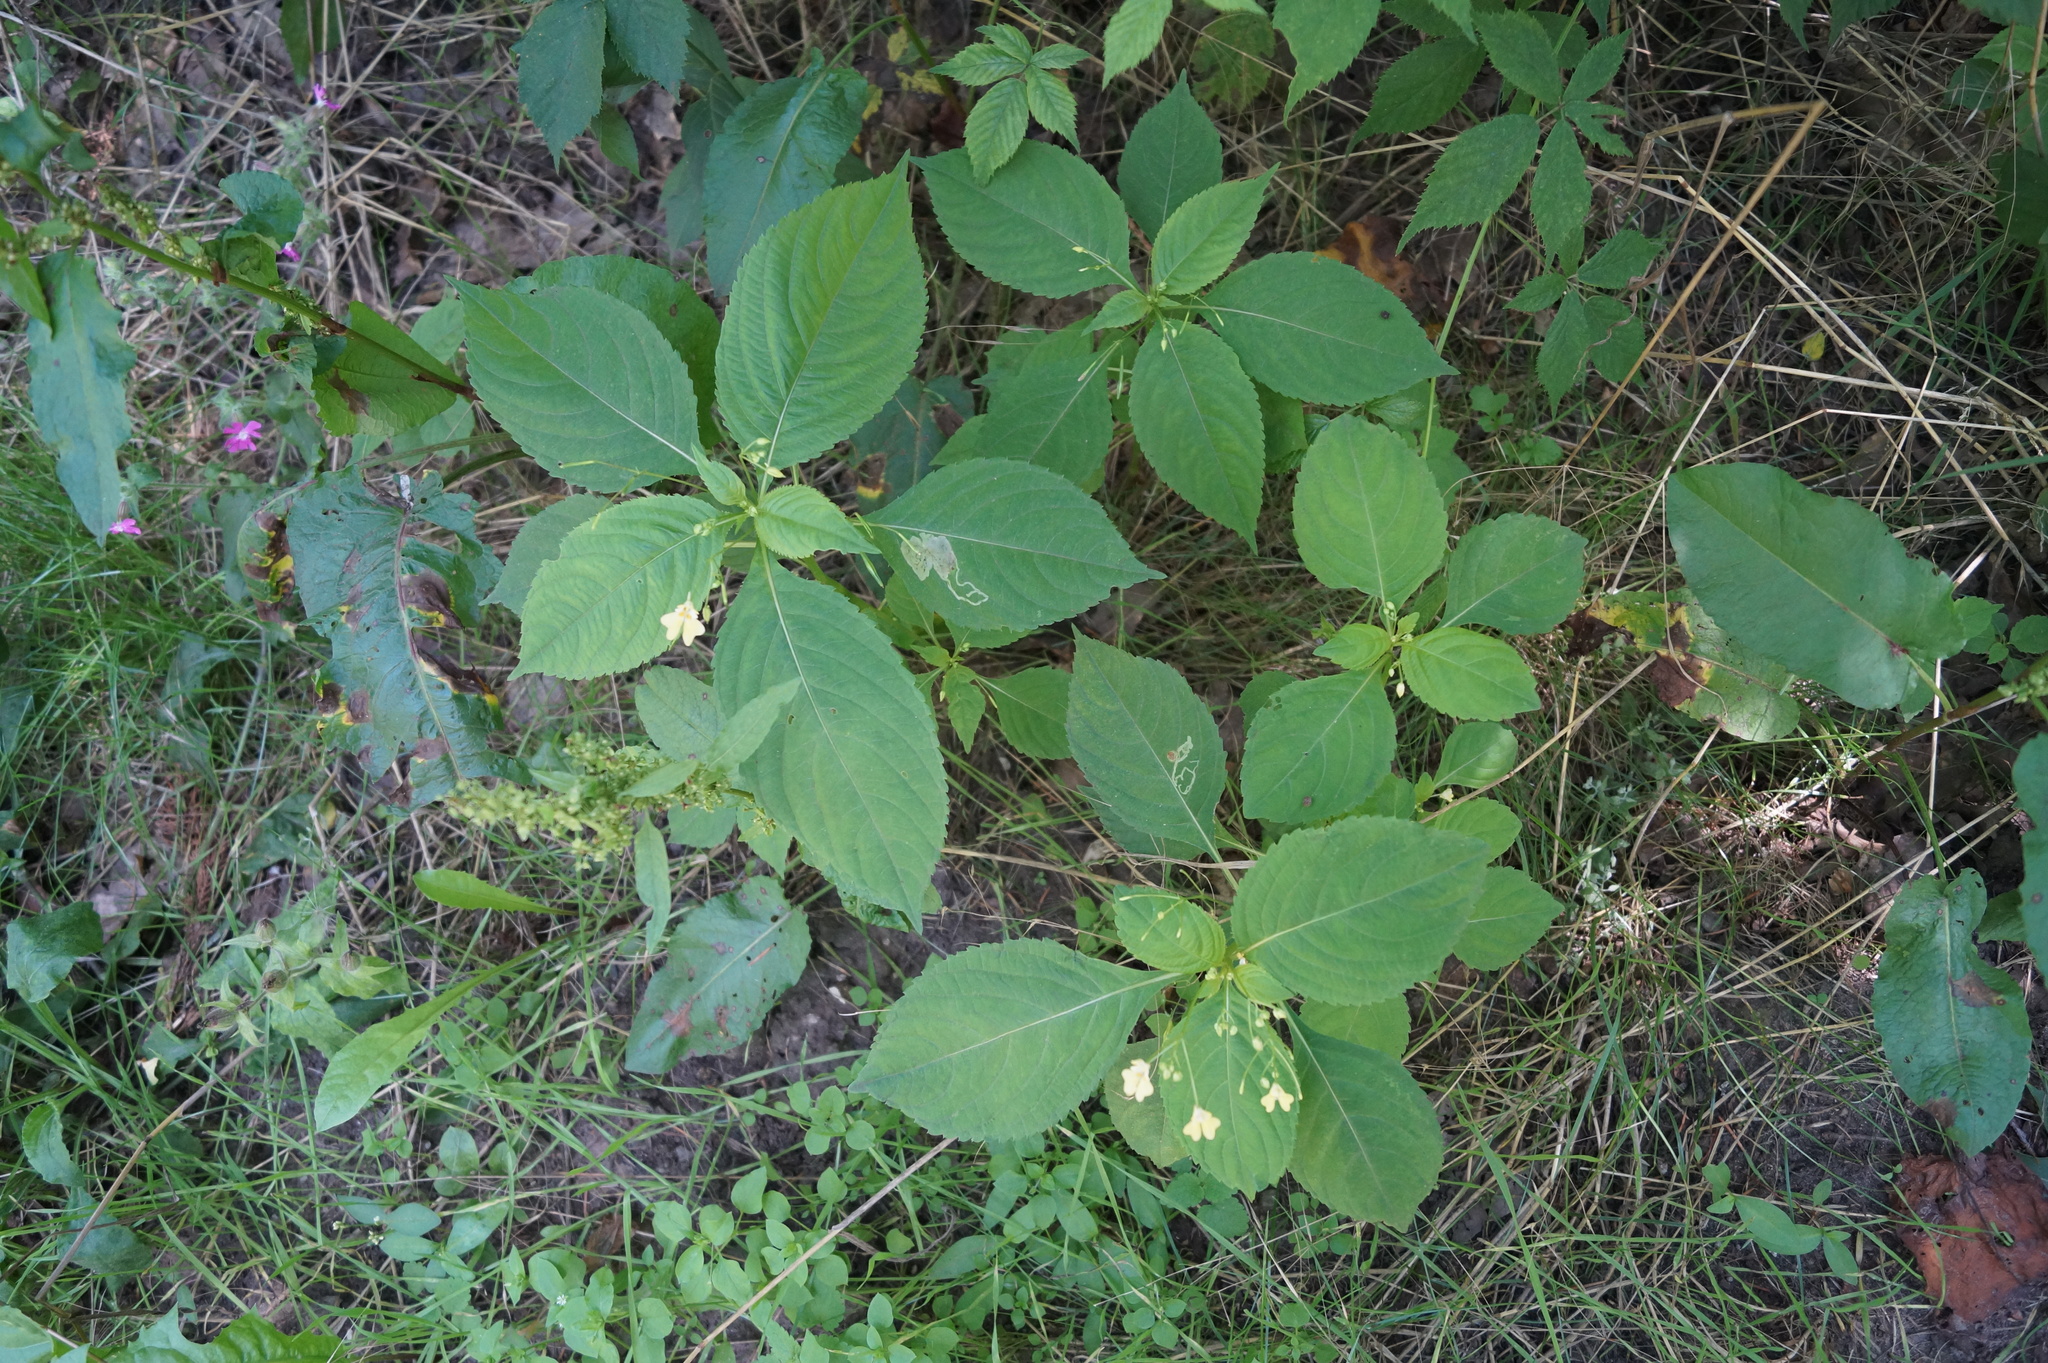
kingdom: Plantae
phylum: Tracheophyta
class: Magnoliopsida
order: Ericales
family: Balsaminaceae
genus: Impatiens
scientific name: Impatiens parviflora
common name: Small balsam
